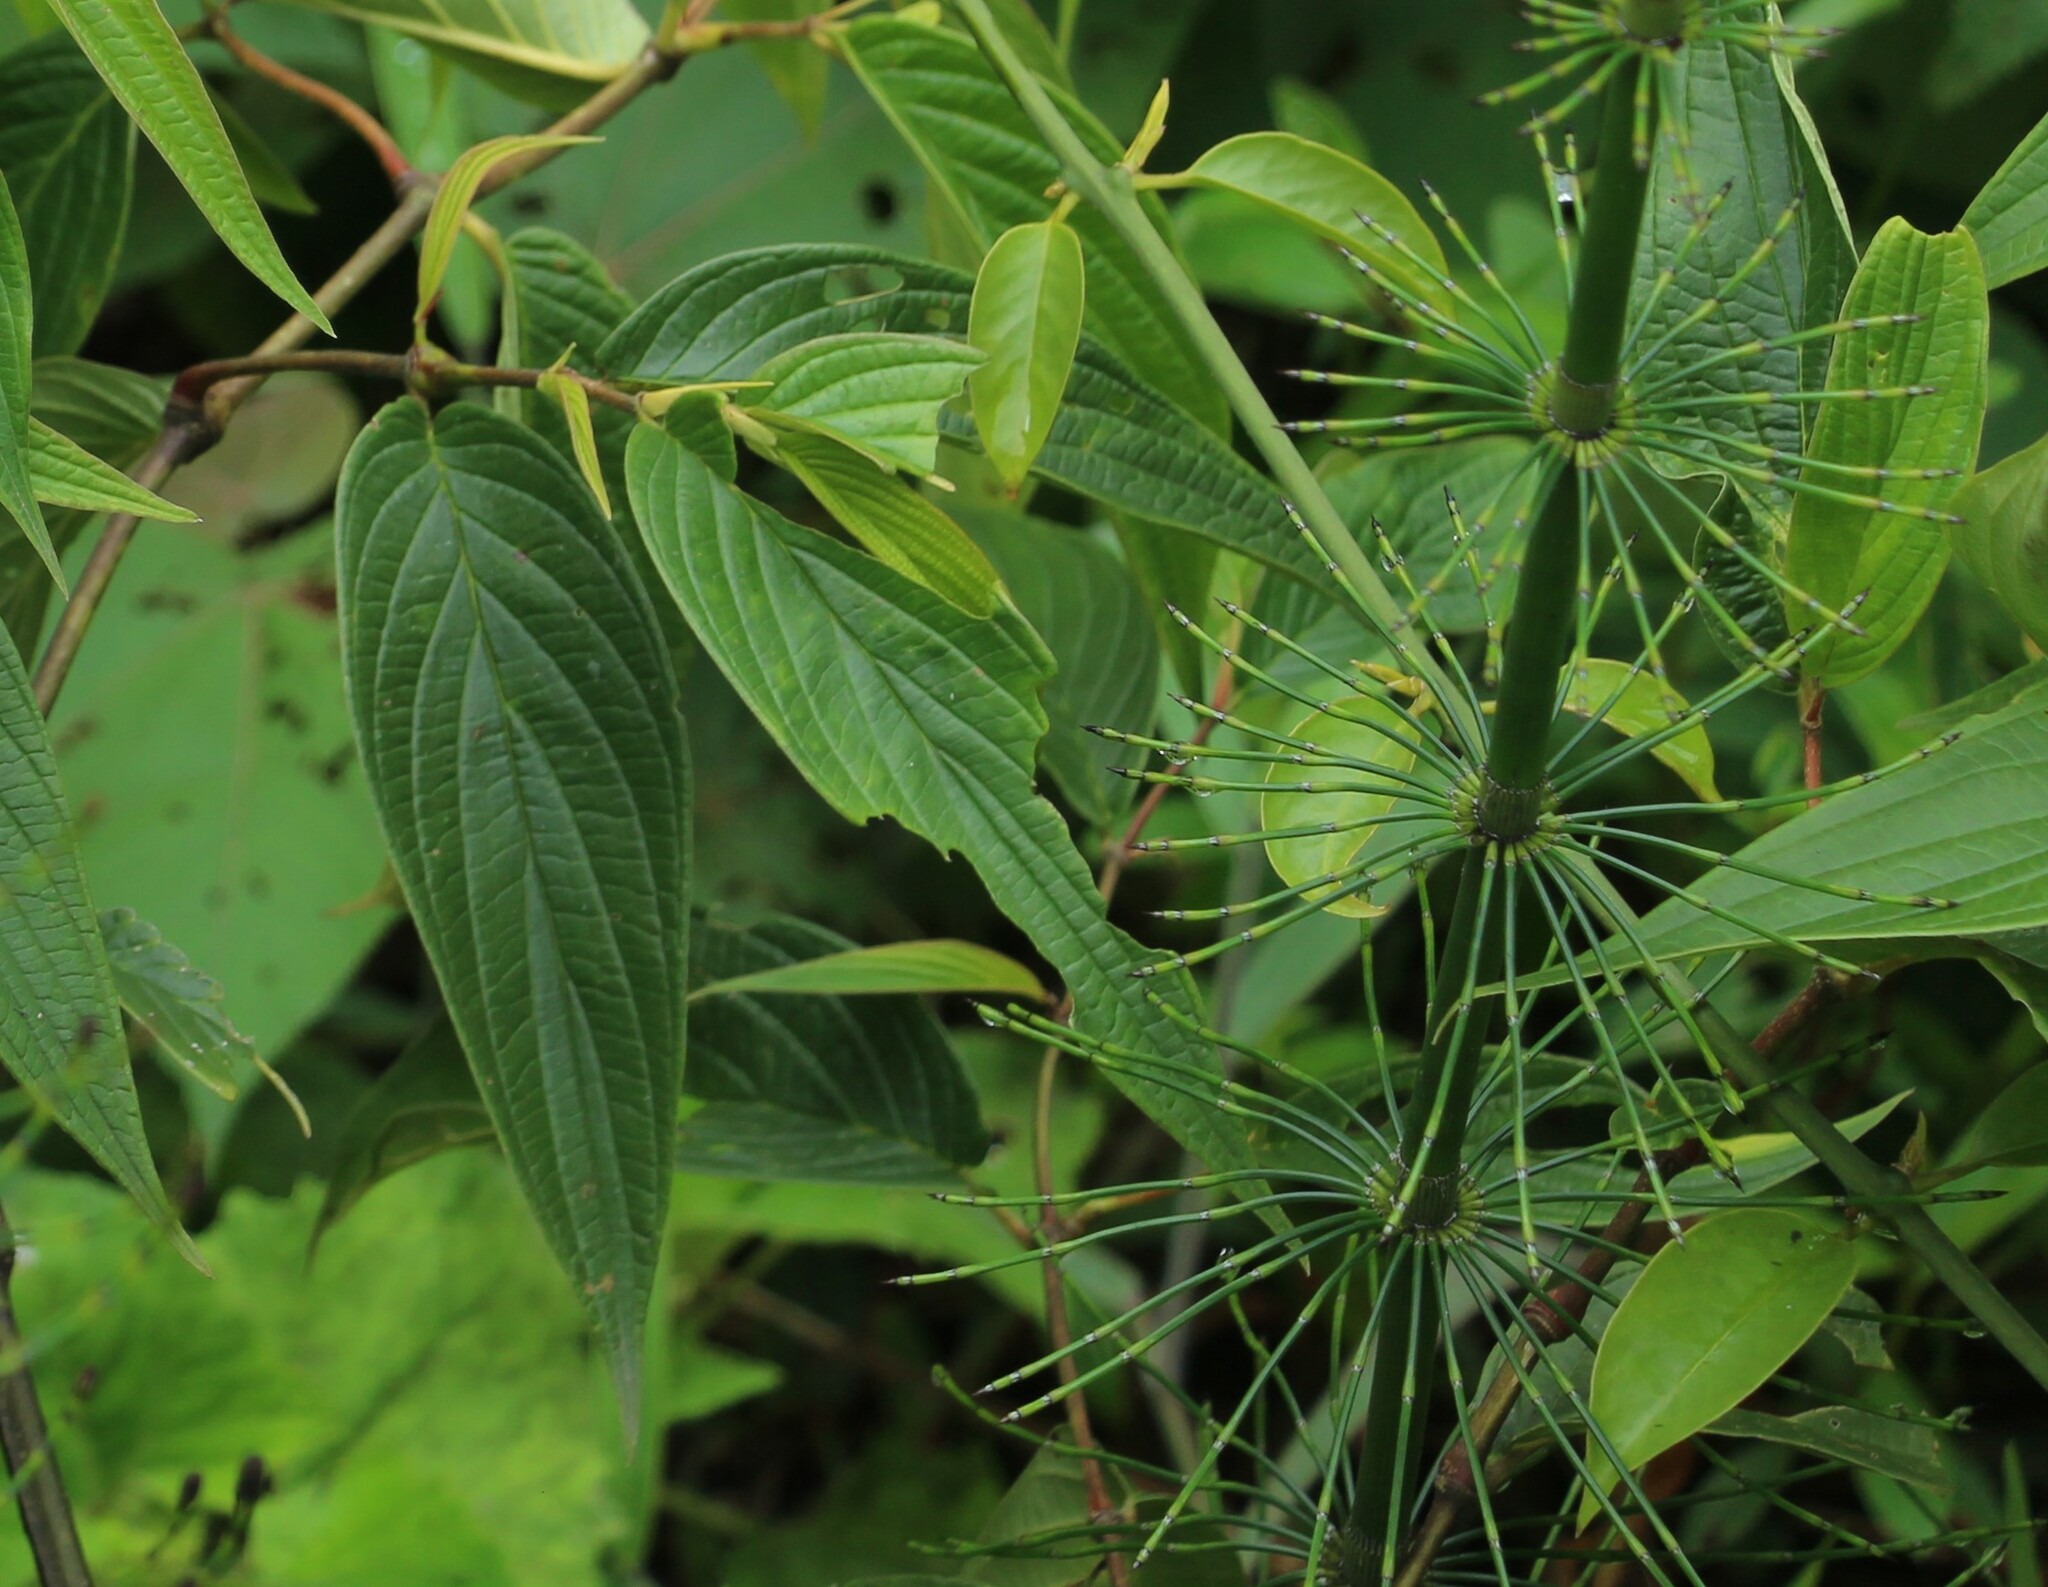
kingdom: Plantae
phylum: Tracheophyta
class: Polypodiopsida
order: Equisetales
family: Equisetaceae
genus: Equisetum
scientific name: Equisetum giganteum
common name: Giant horsetail
